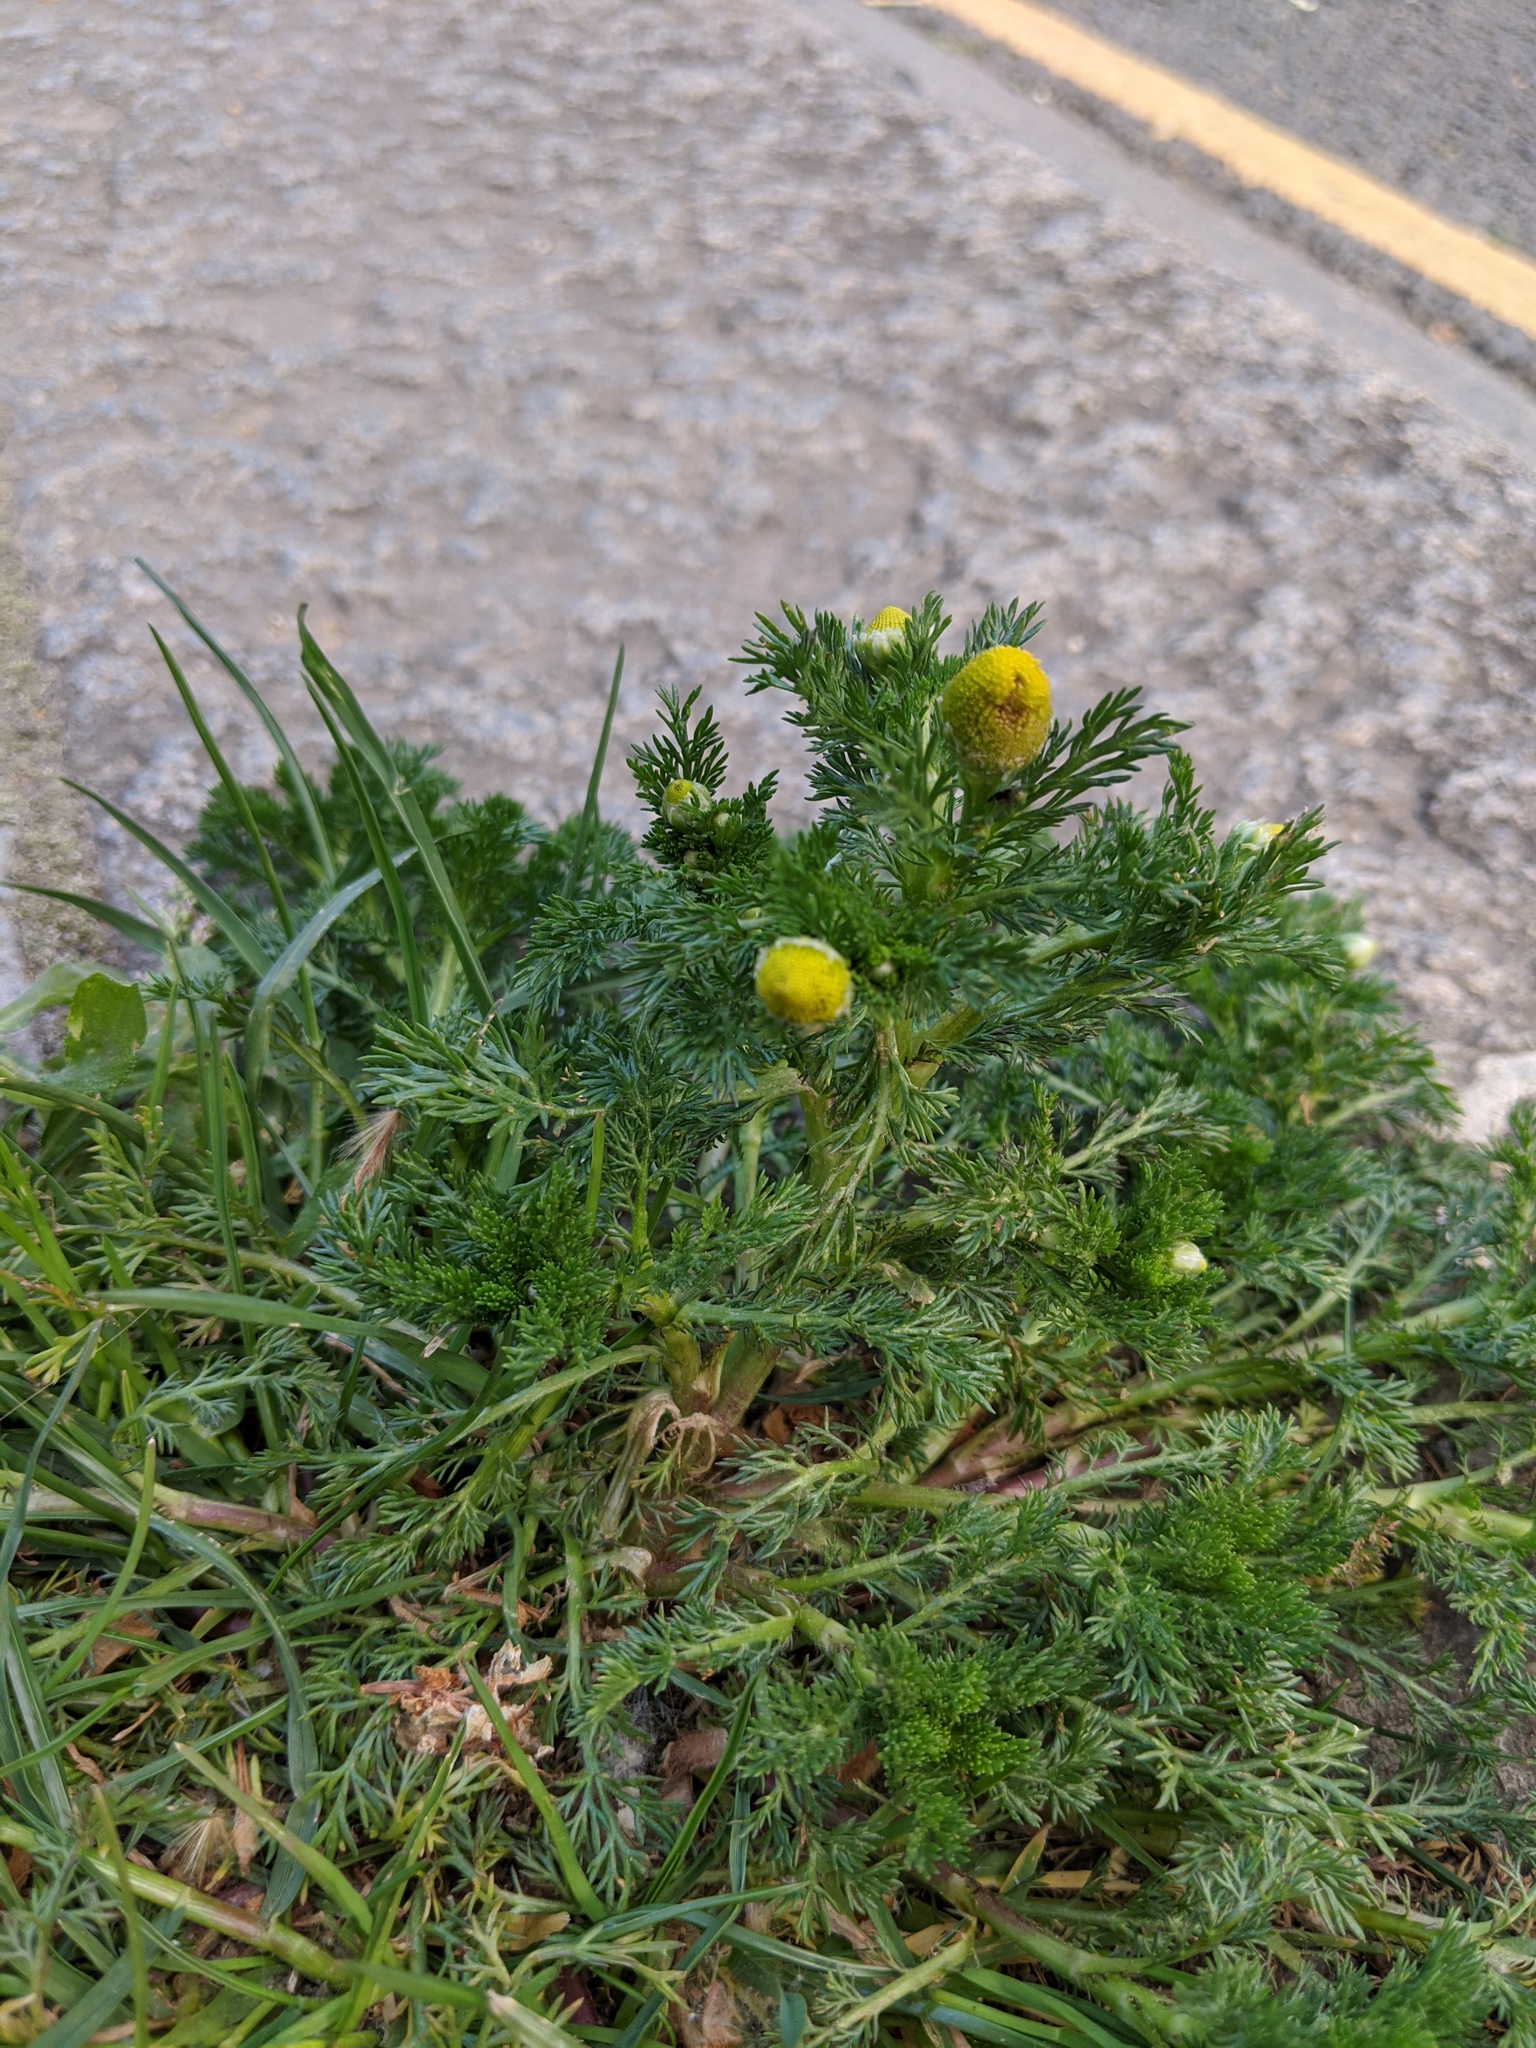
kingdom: Plantae
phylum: Tracheophyta
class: Magnoliopsida
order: Asterales
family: Asteraceae
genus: Matricaria
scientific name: Matricaria discoidea
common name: Disc mayweed
